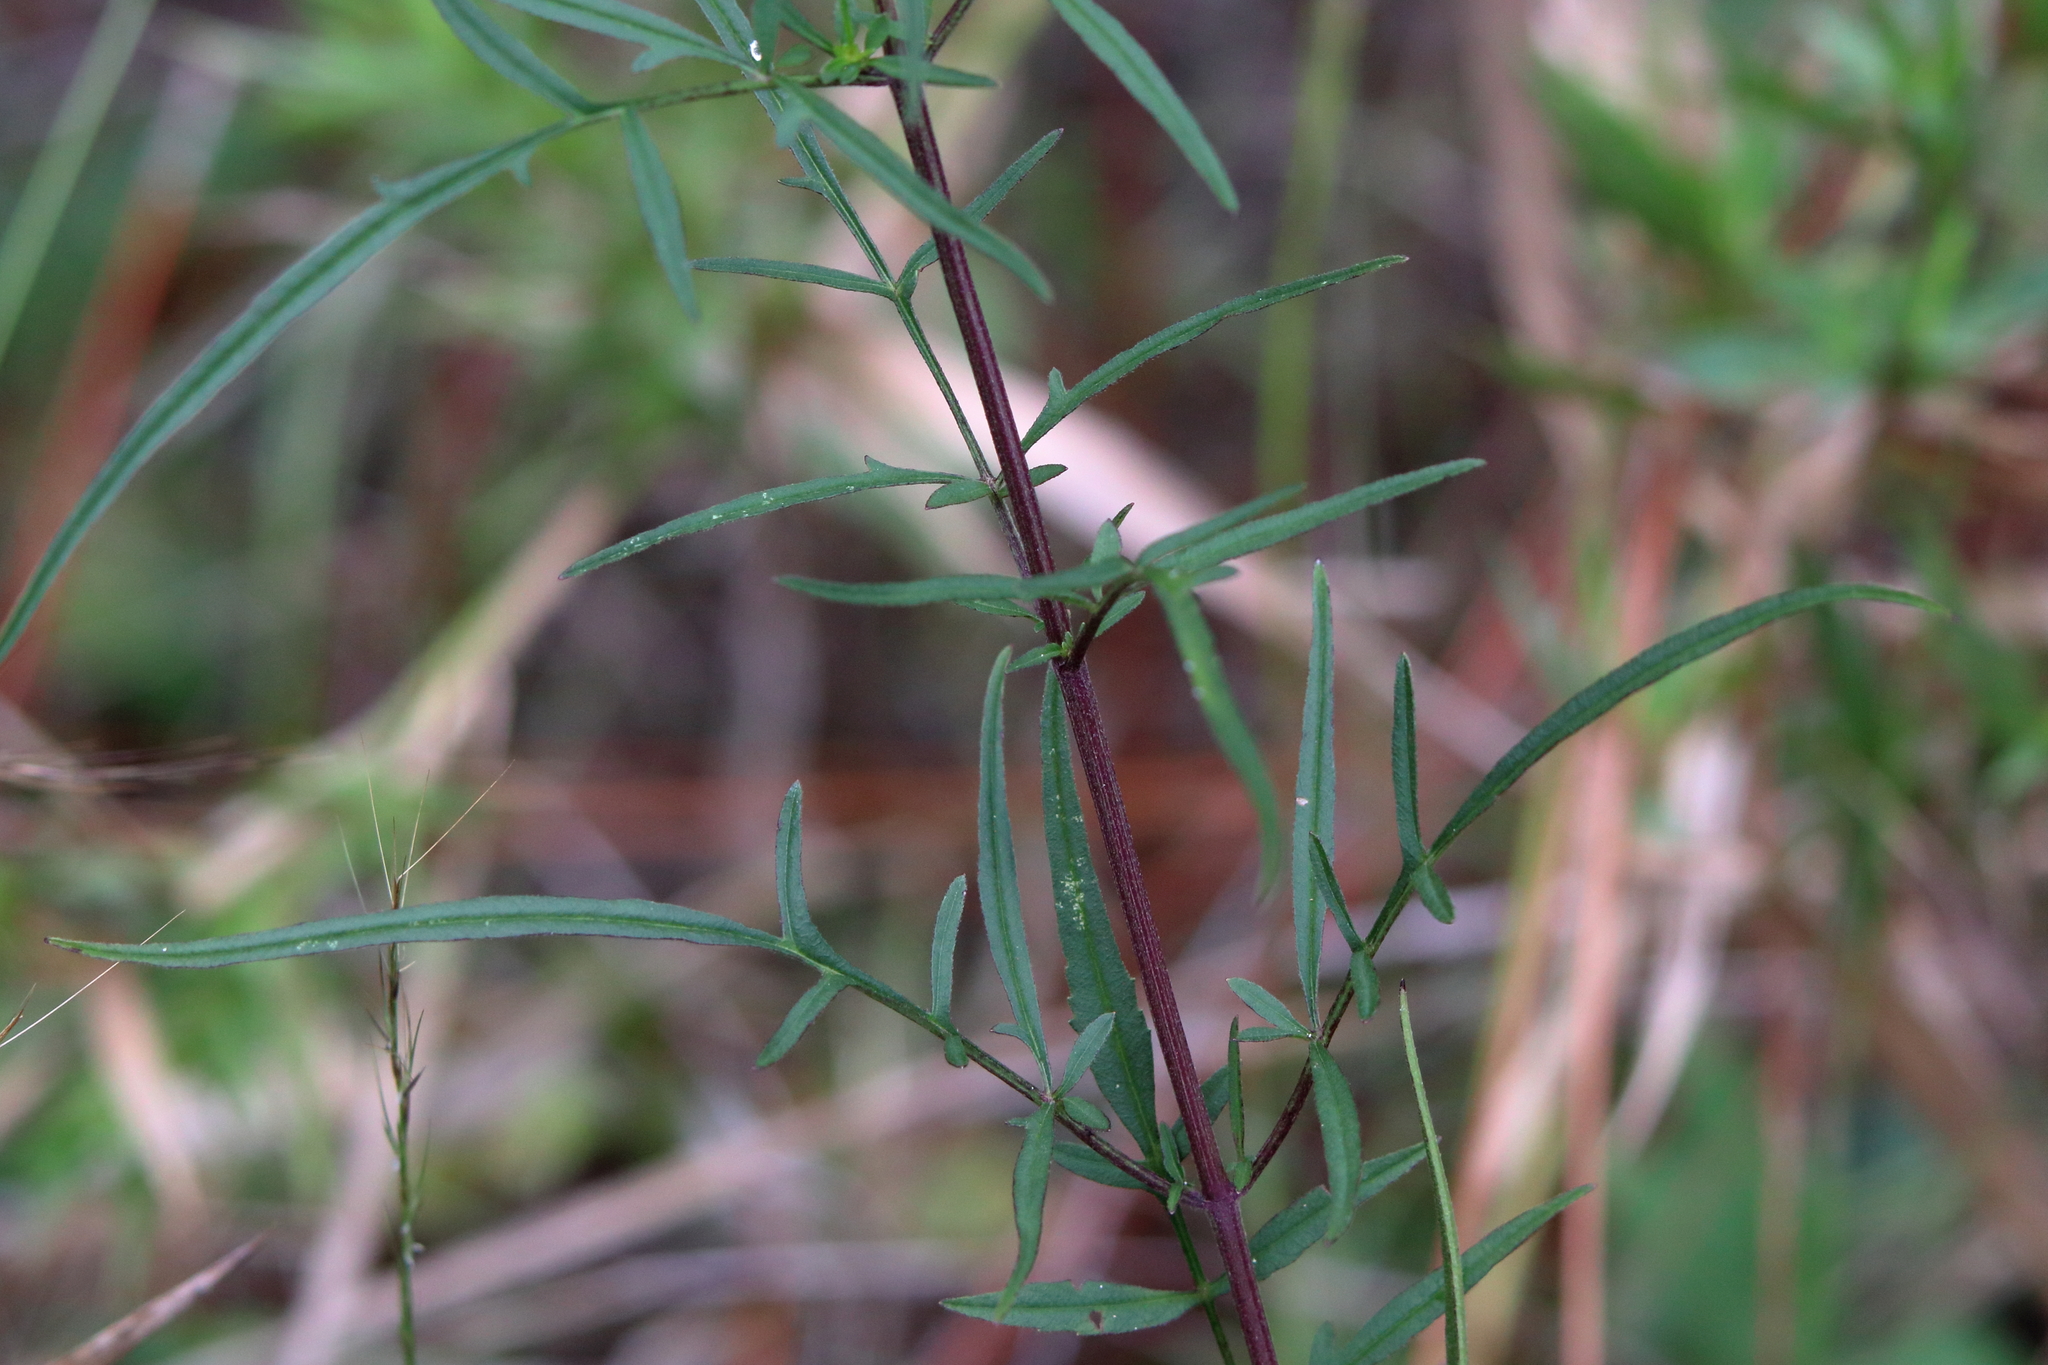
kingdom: Plantae
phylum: Tracheophyta
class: Magnoliopsida
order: Asterales
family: Asteraceae
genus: Bidens
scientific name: Bidens mitis
